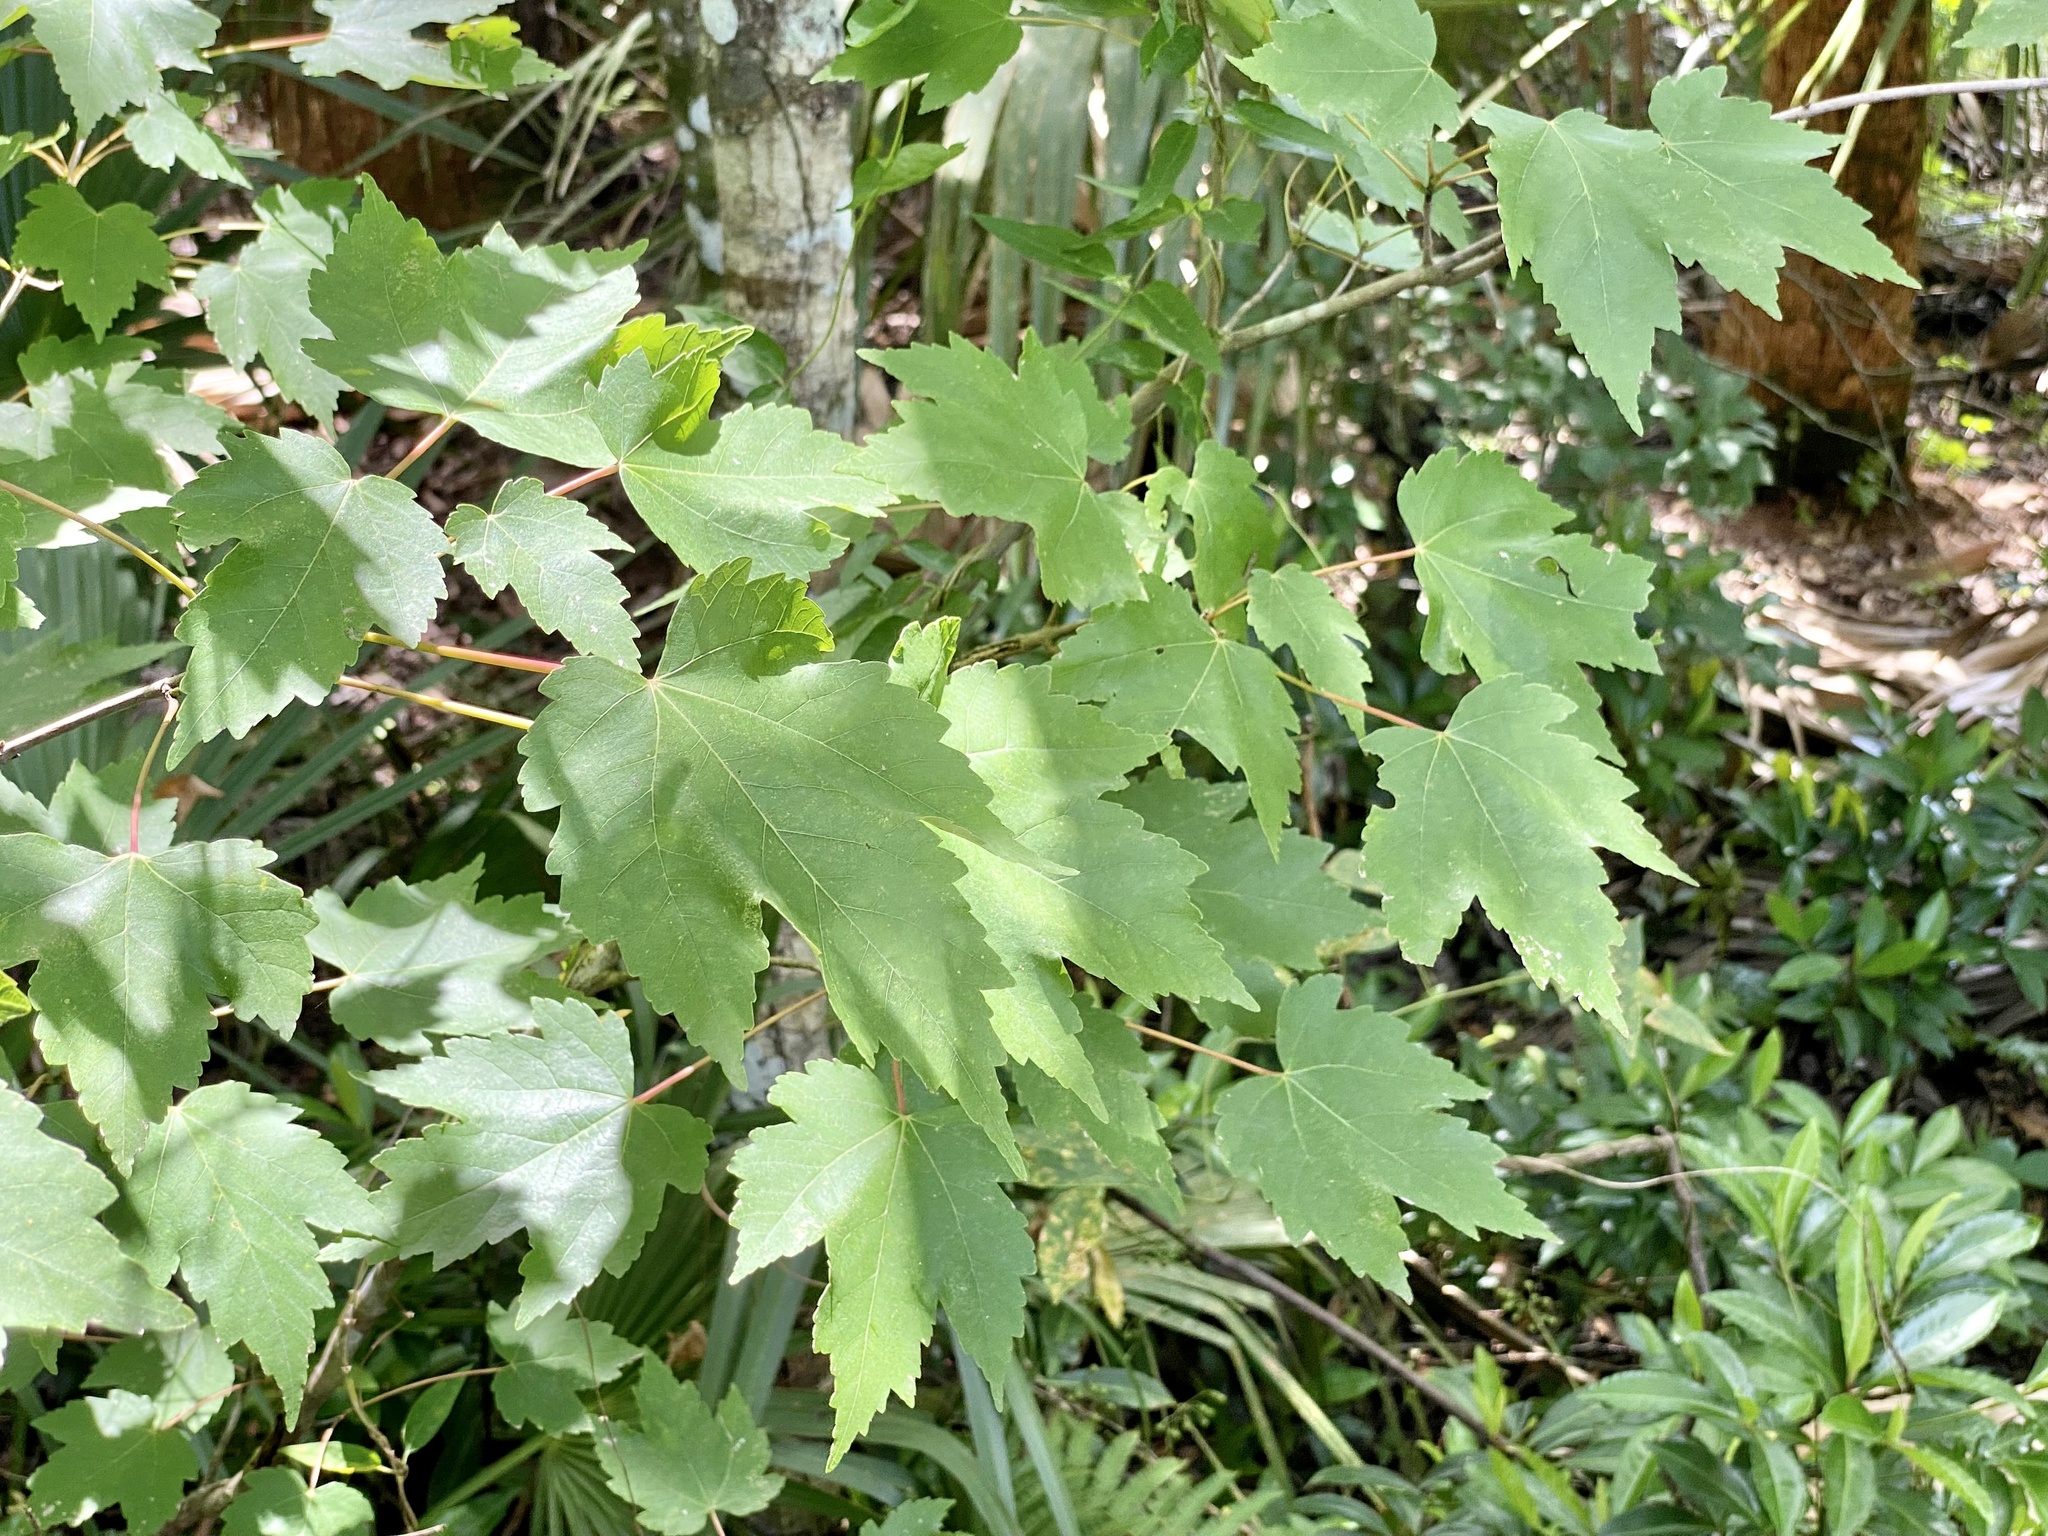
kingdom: Plantae
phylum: Tracheophyta
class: Magnoliopsida
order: Sapindales
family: Sapindaceae
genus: Acer
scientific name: Acer rubrum
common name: Red maple
